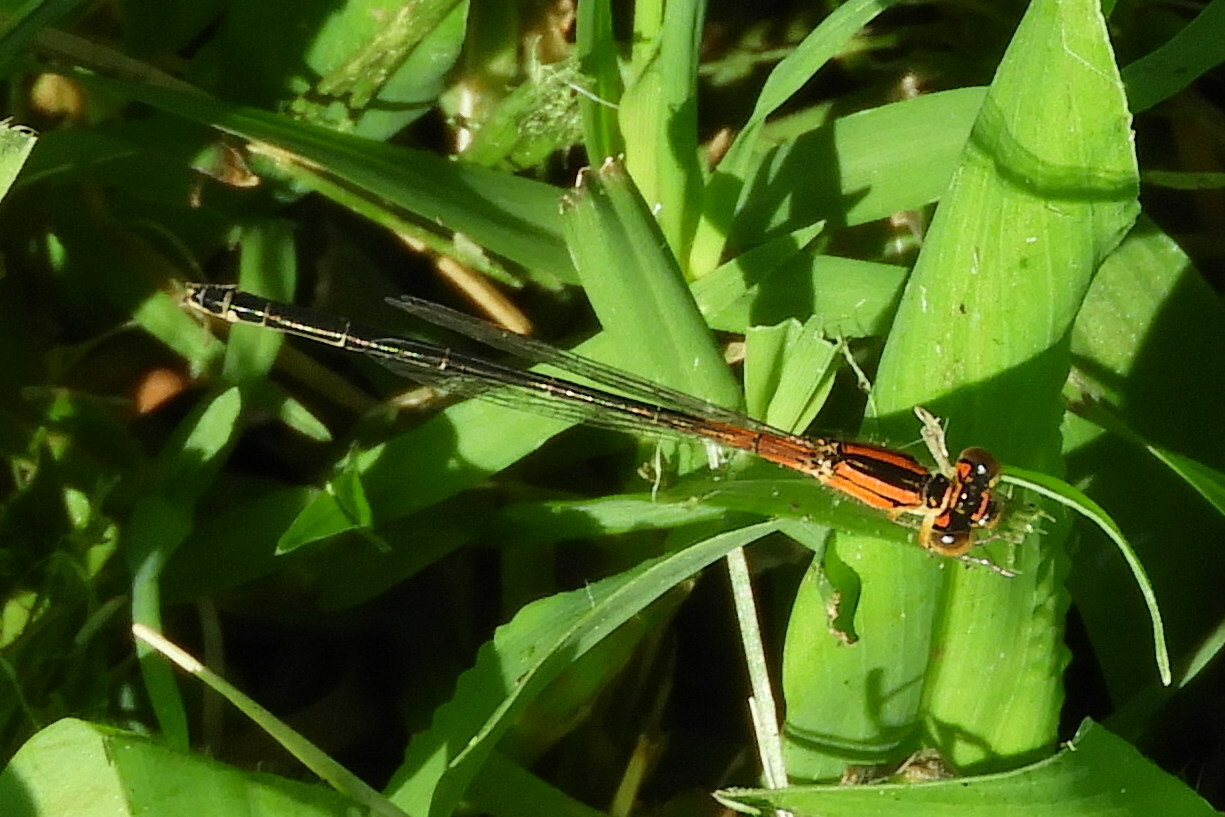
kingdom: Animalia
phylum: Arthropoda
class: Insecta
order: Odonata
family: Coenagrionidae
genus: Ischnura
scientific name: Ischnura verticalis
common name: Eastern forktail
